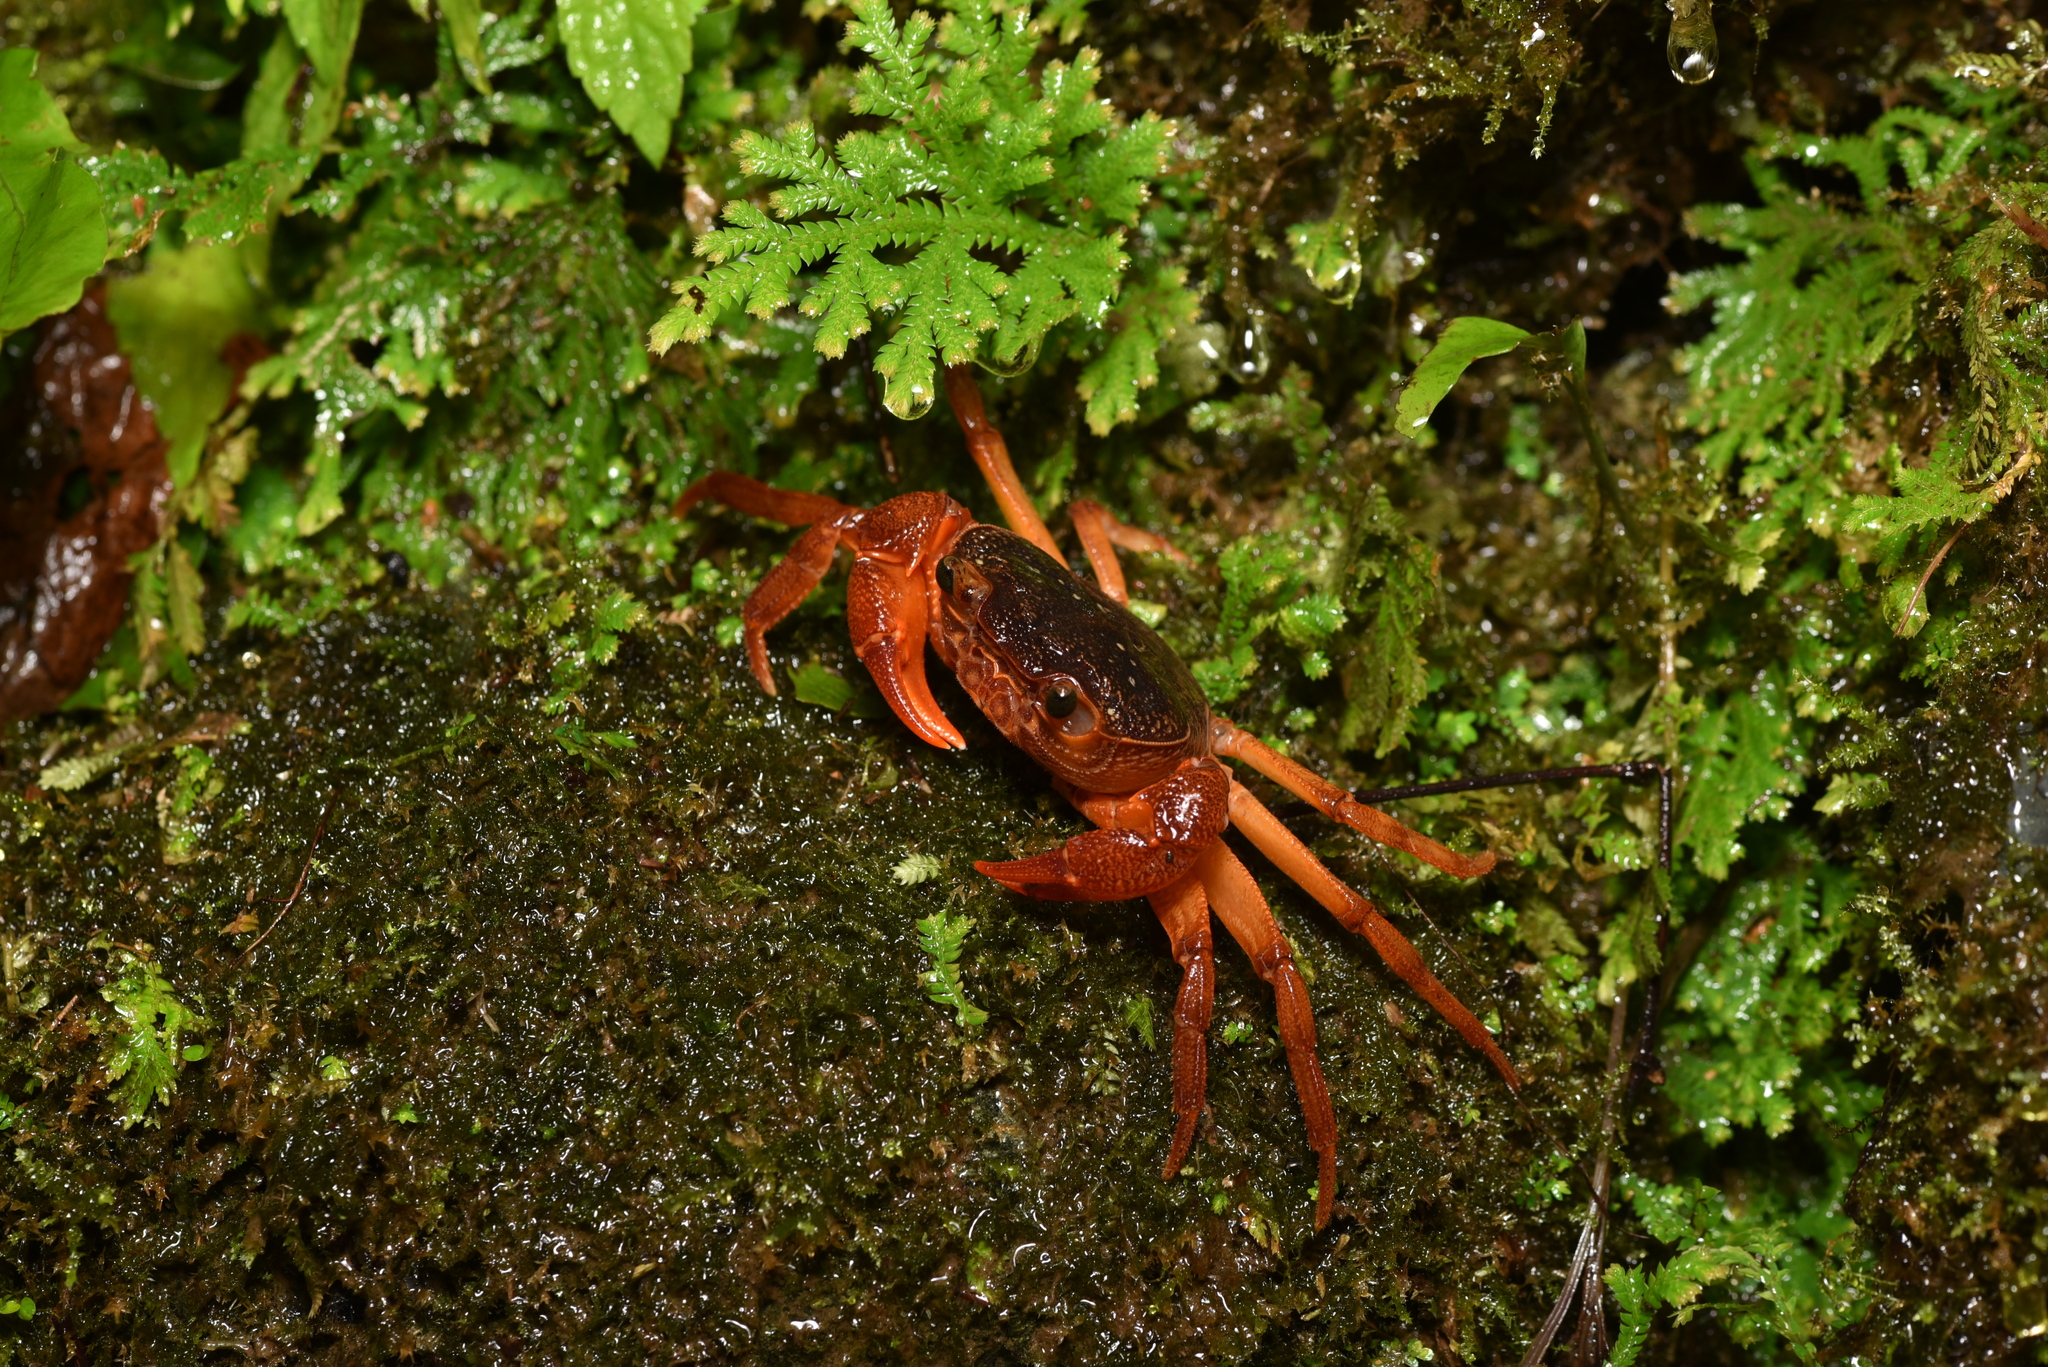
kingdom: Animalia
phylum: Arthropoda
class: Malacostraca
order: Decapoda
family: Potamidae
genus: Candidiopotamon
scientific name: Candidiopotamon
